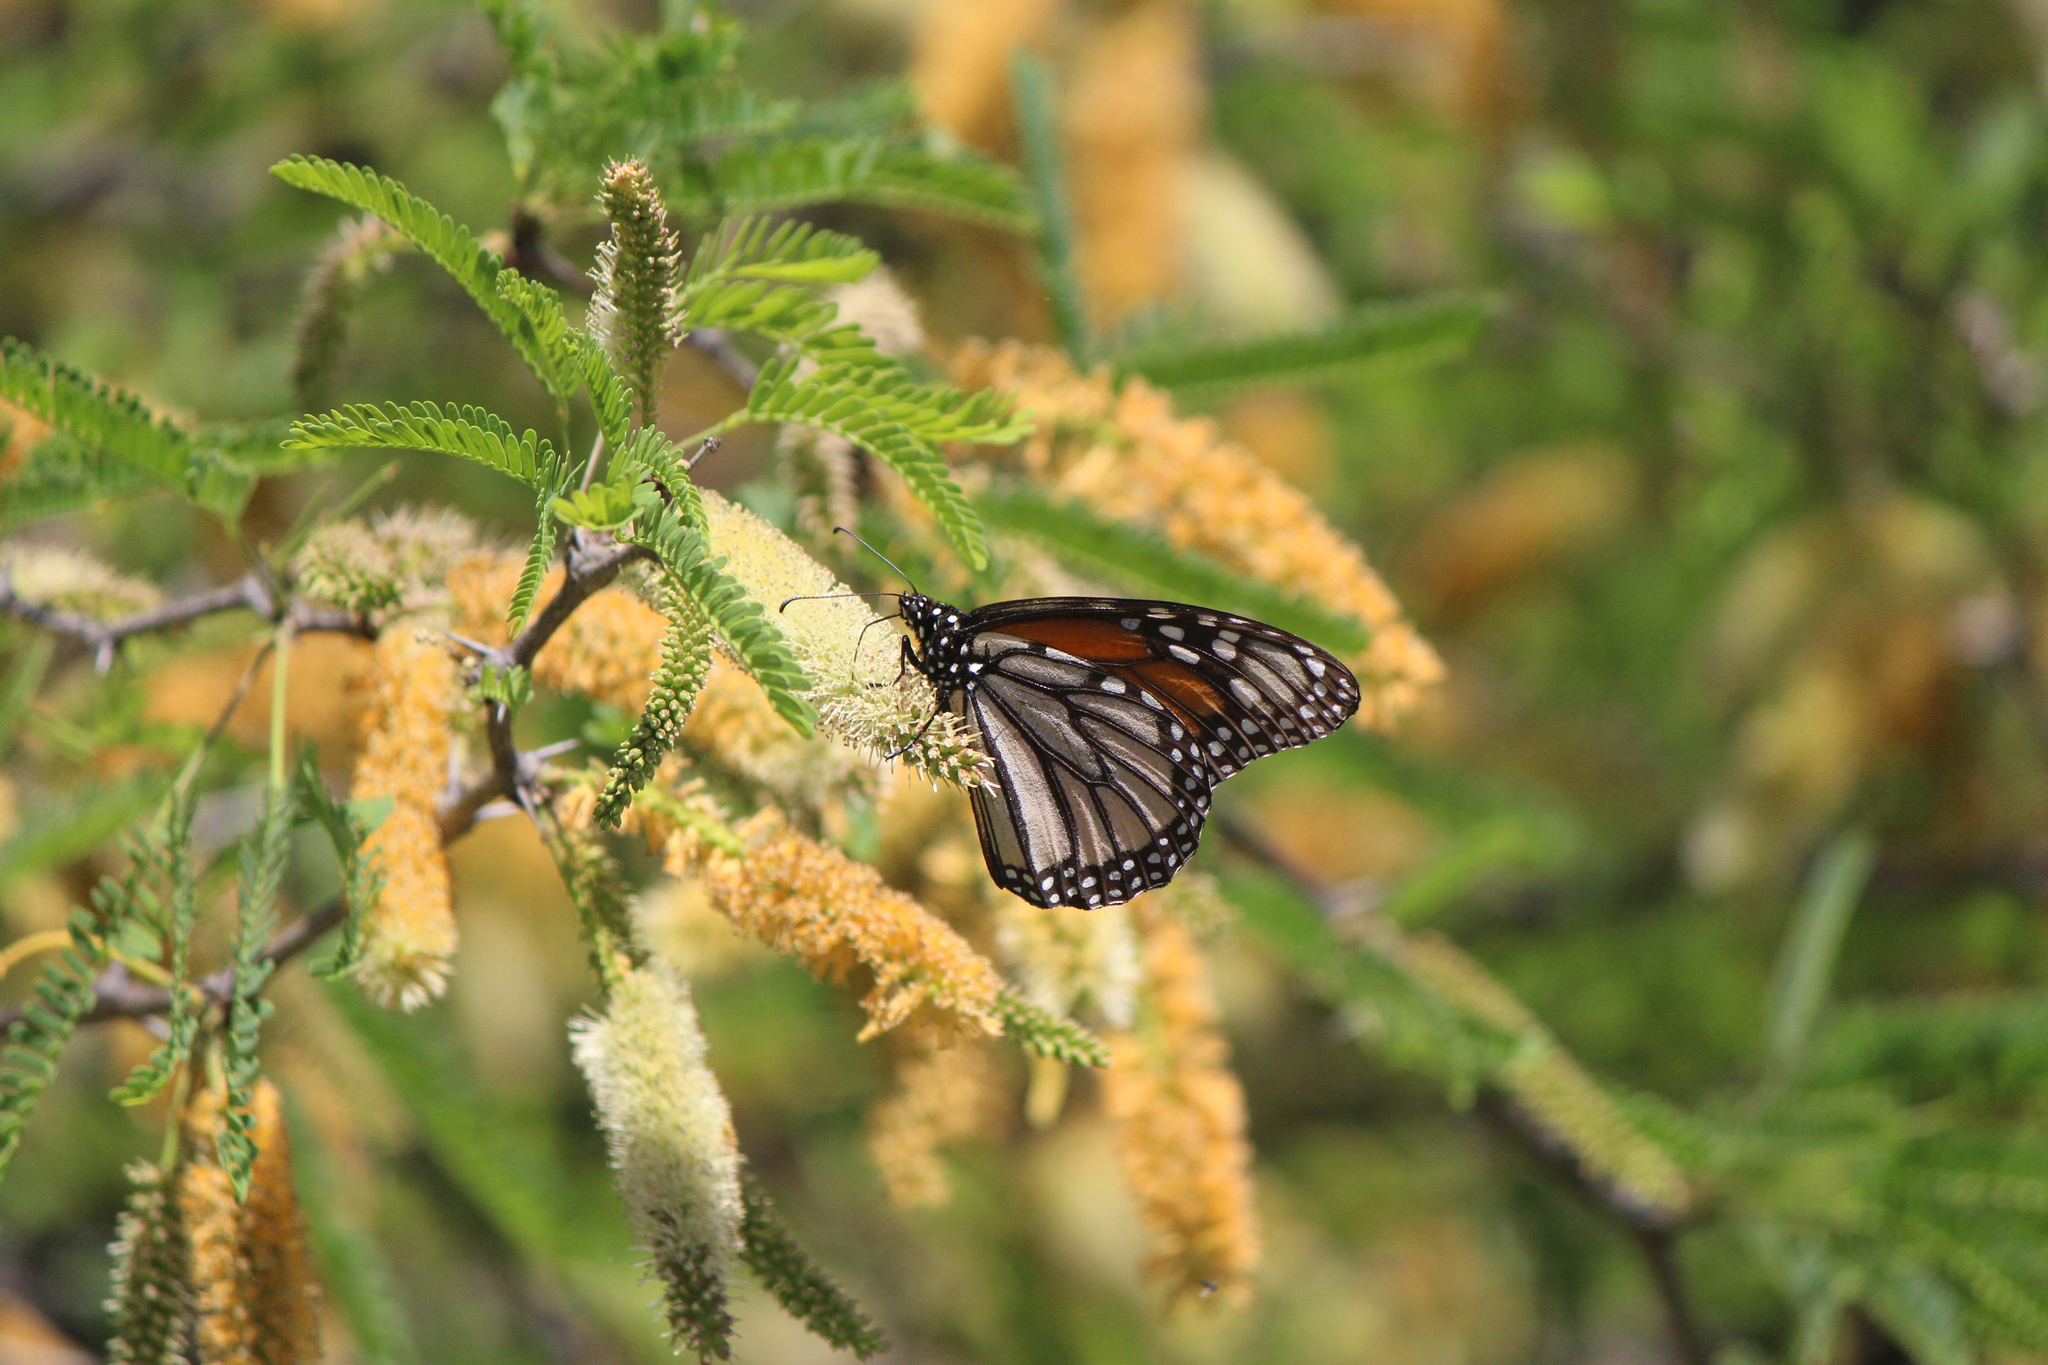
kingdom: Animalia
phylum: Arthropoda
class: Insecta
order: Lepidoptera
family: Nymphalidae
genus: Danaus
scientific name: Danaus plexippus
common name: Monarch
